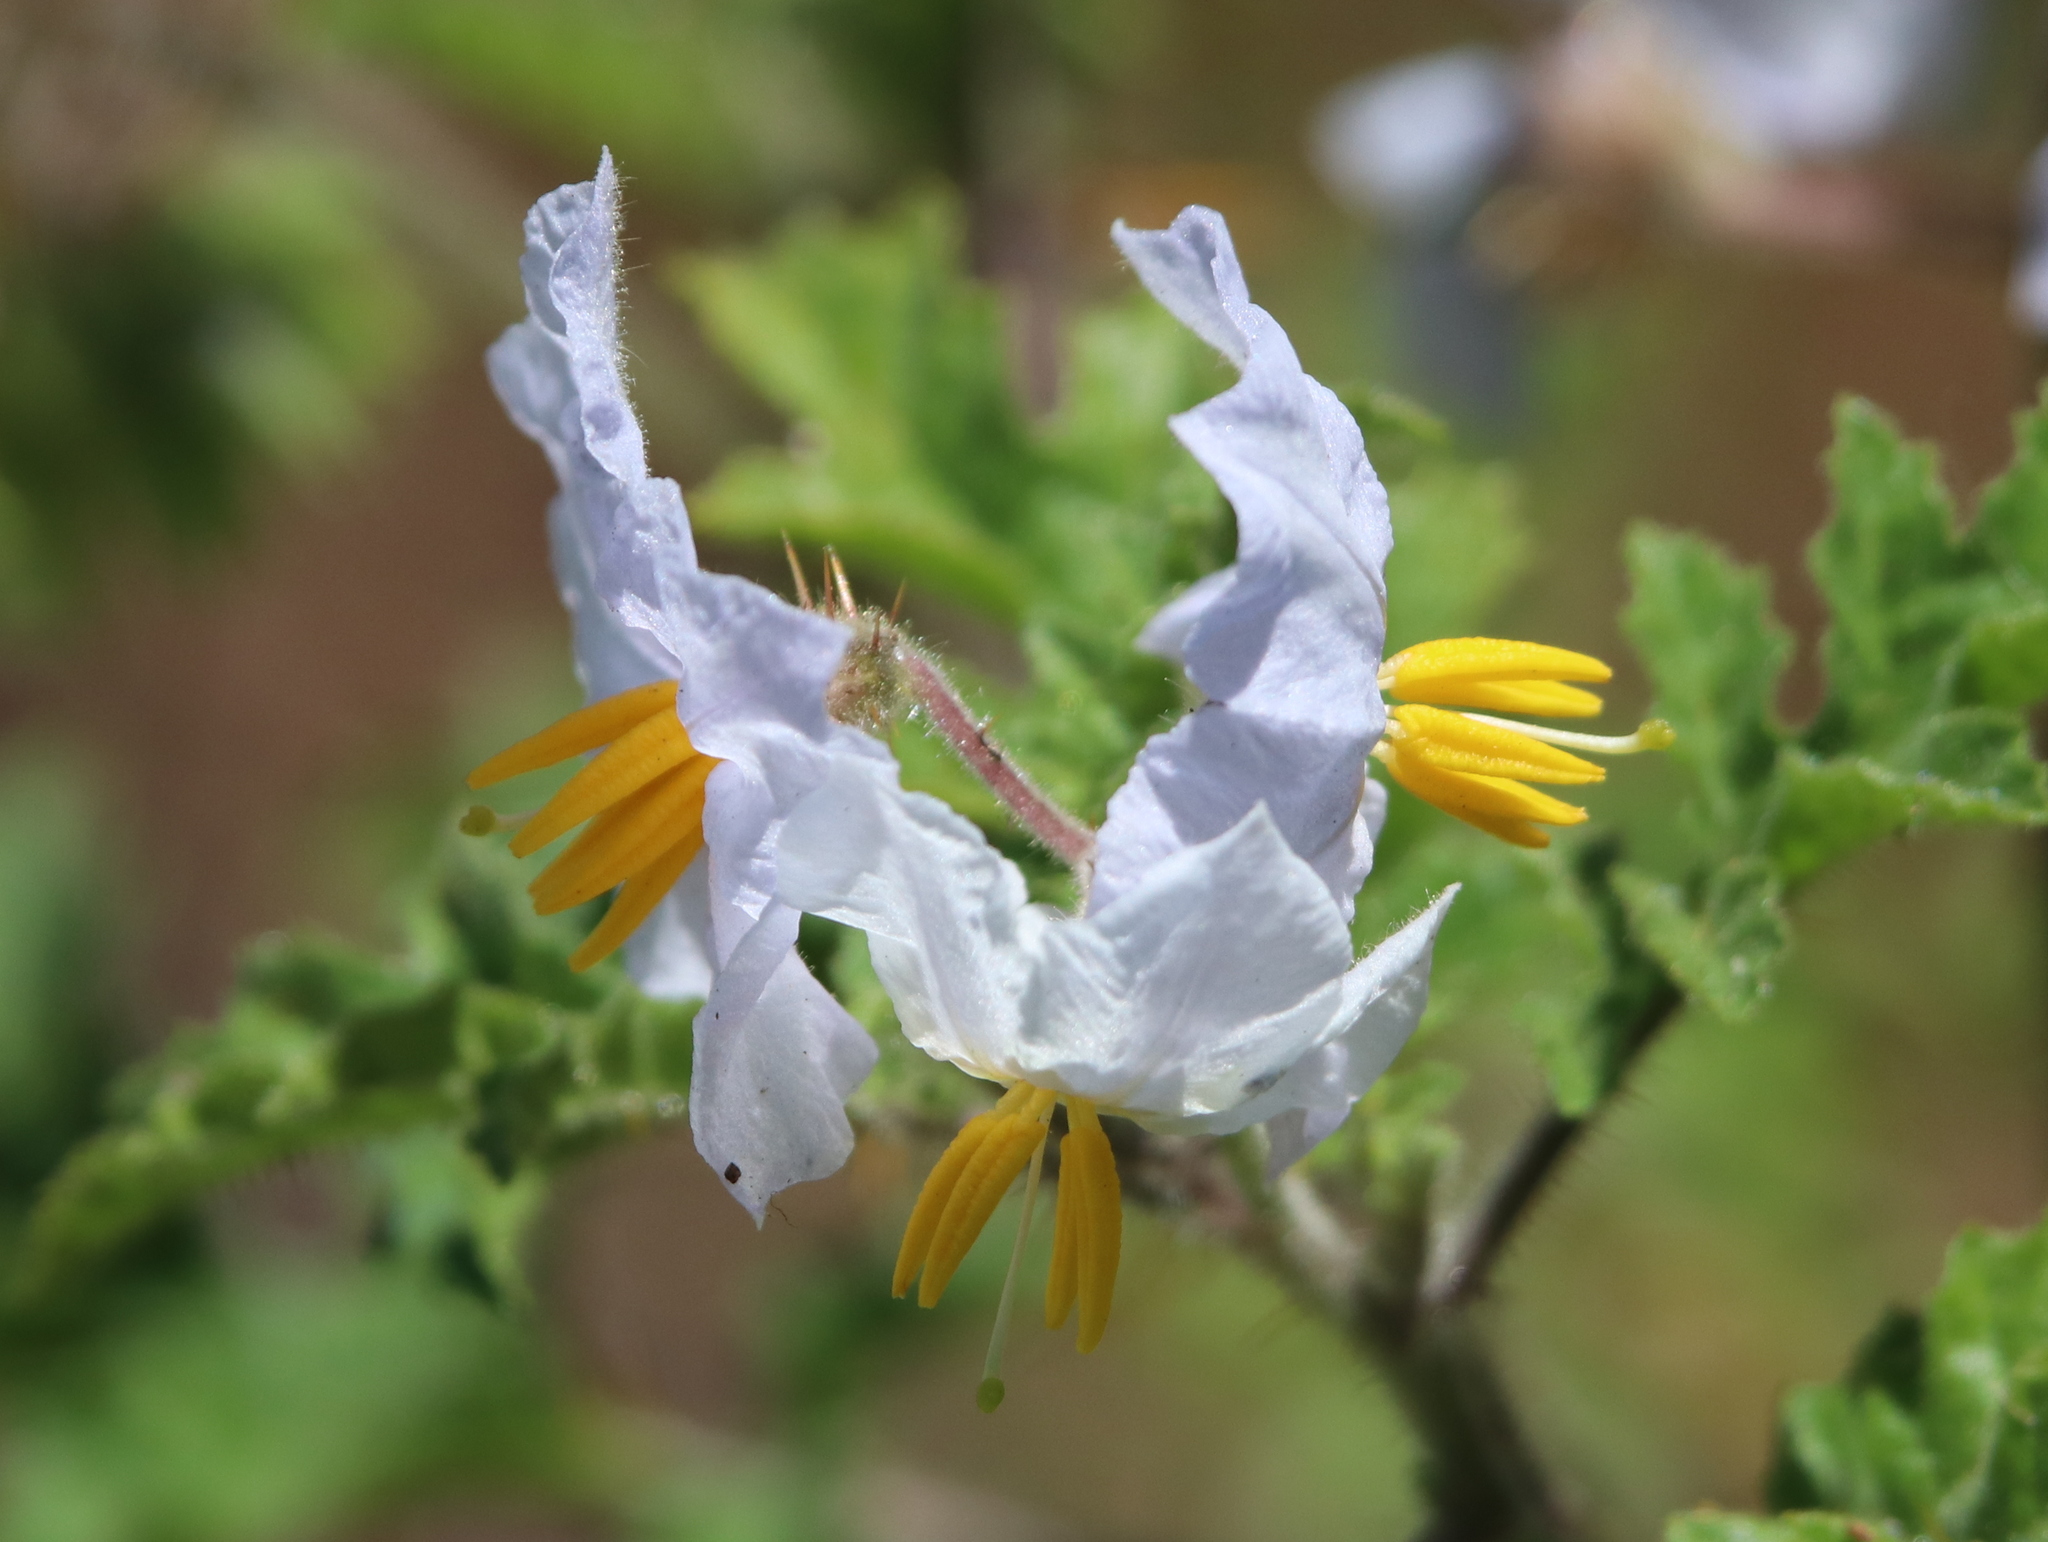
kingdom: Plantae
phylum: Tracheophyta
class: Magnoliopsida
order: Solanales
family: Solanaceae
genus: Solanum
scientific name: Solanum sisymbriifolium
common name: Red buffalo-bur
